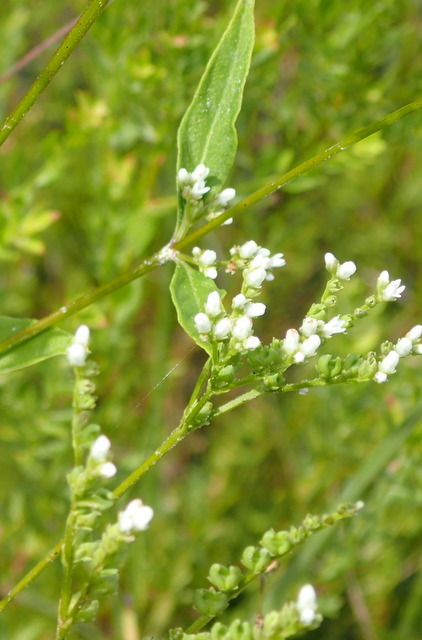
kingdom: Plantae
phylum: Tracheophyta
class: Magnoliopsida
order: Gentianales
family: Loganiaceae
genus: Mitreola
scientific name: Mitreola petiolata
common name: Lax hornpod
